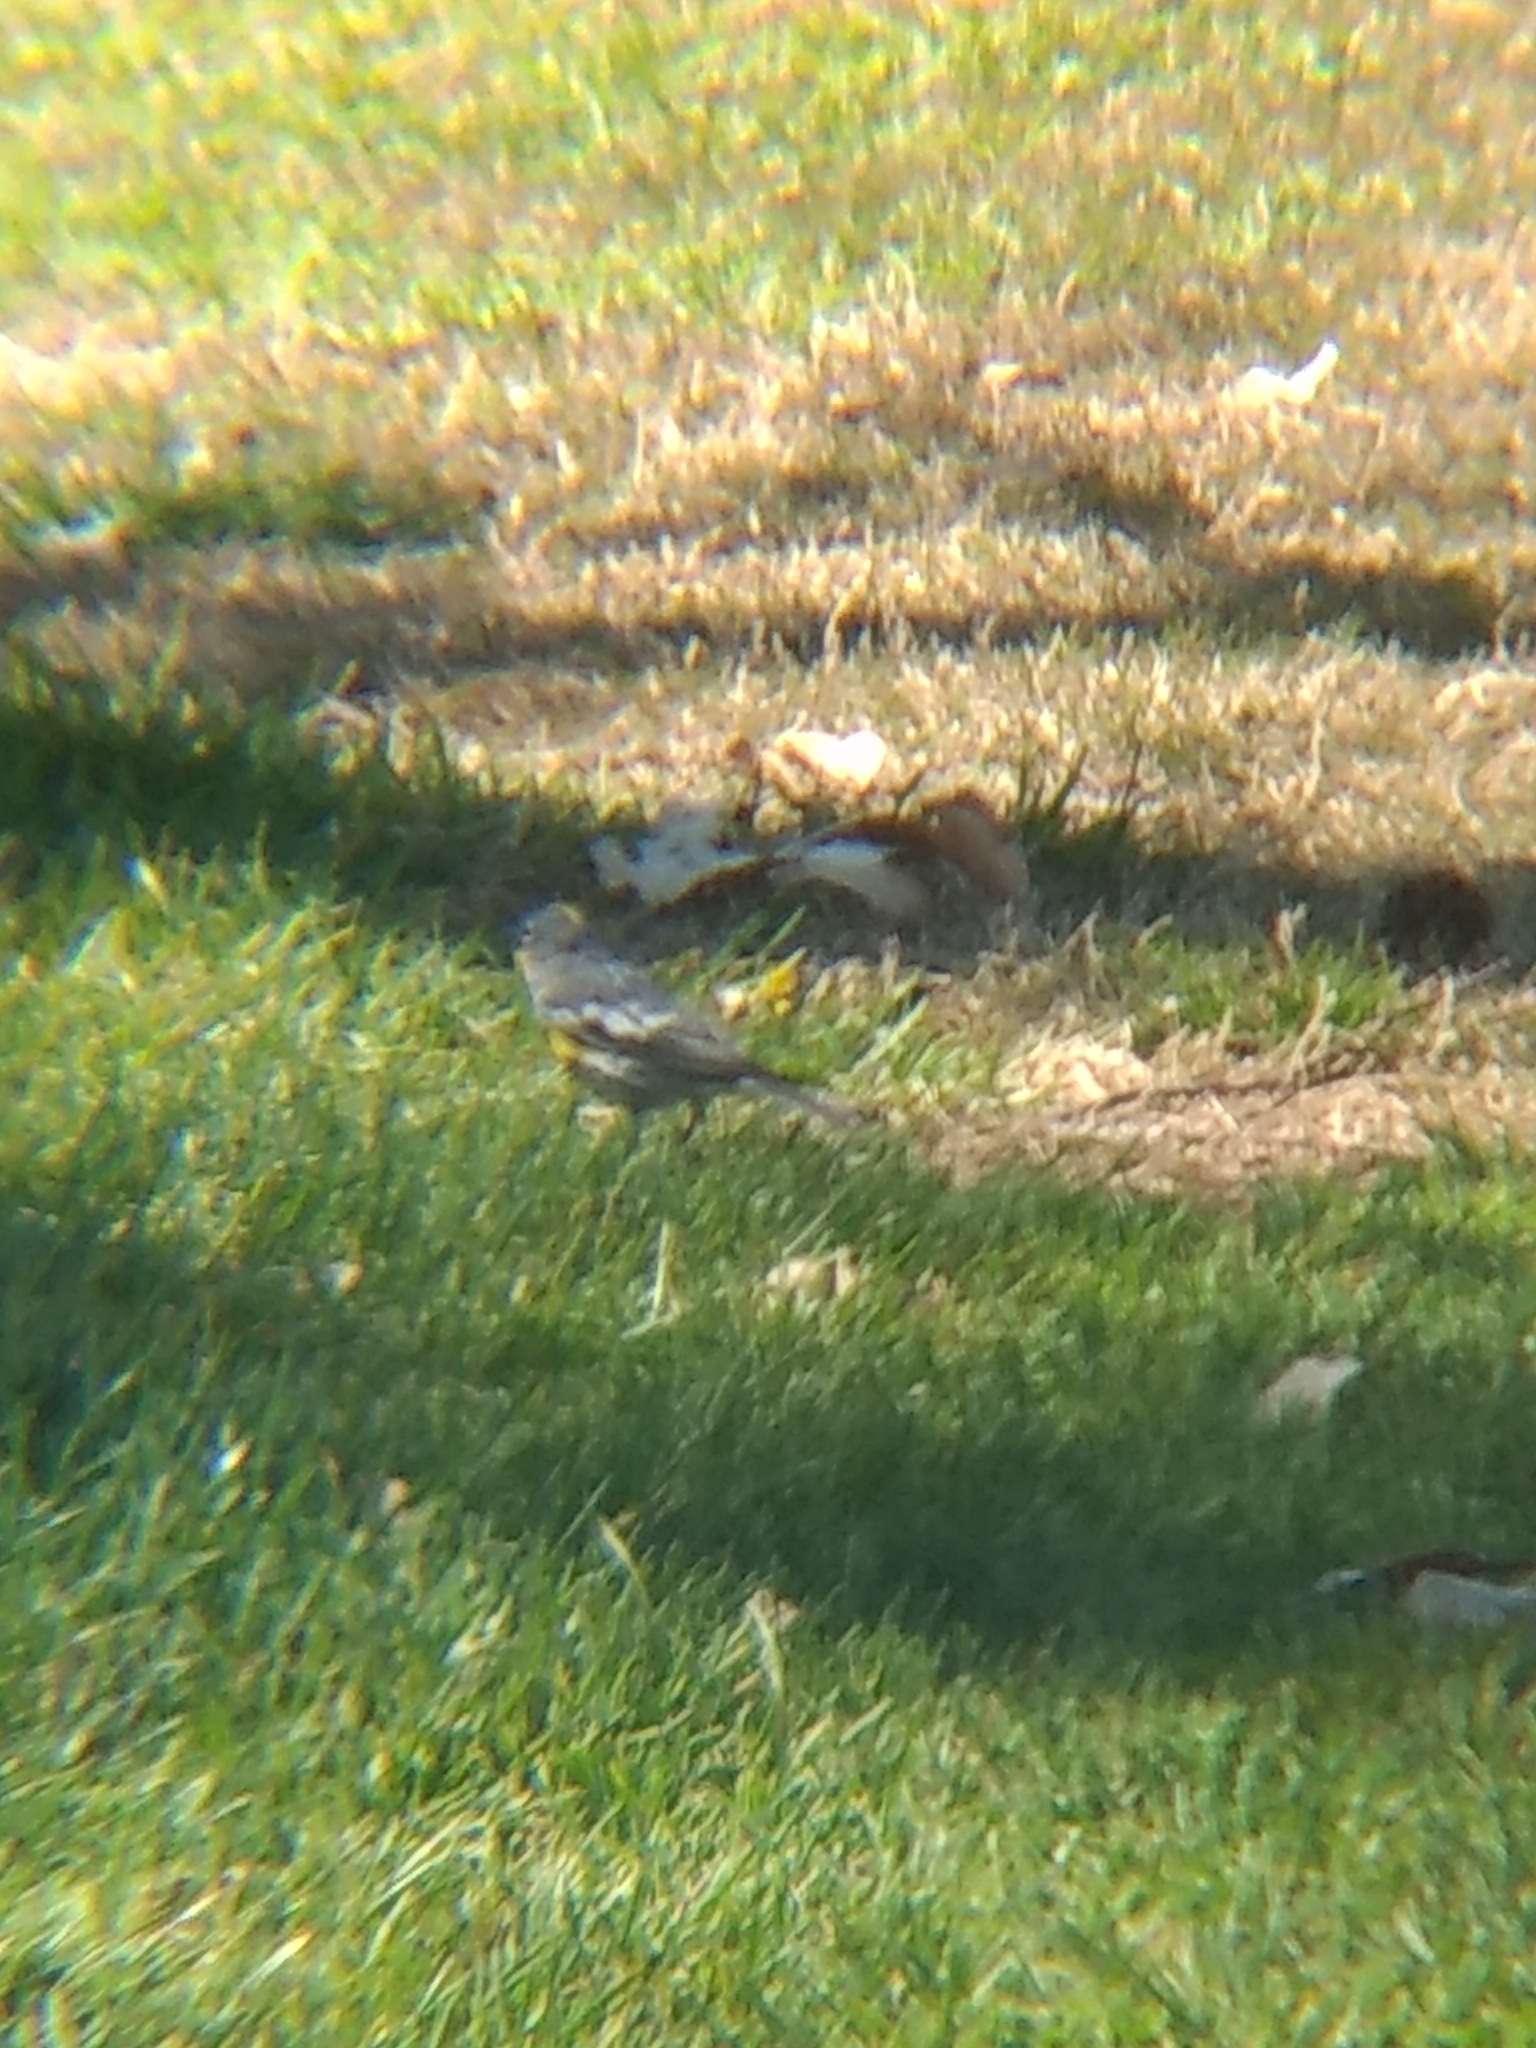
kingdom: Animalia
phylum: Chordata
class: Aves
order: Passeriformes
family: Parulidae
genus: Setophaga
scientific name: Setophaga coronata
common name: Myrtle warbler
